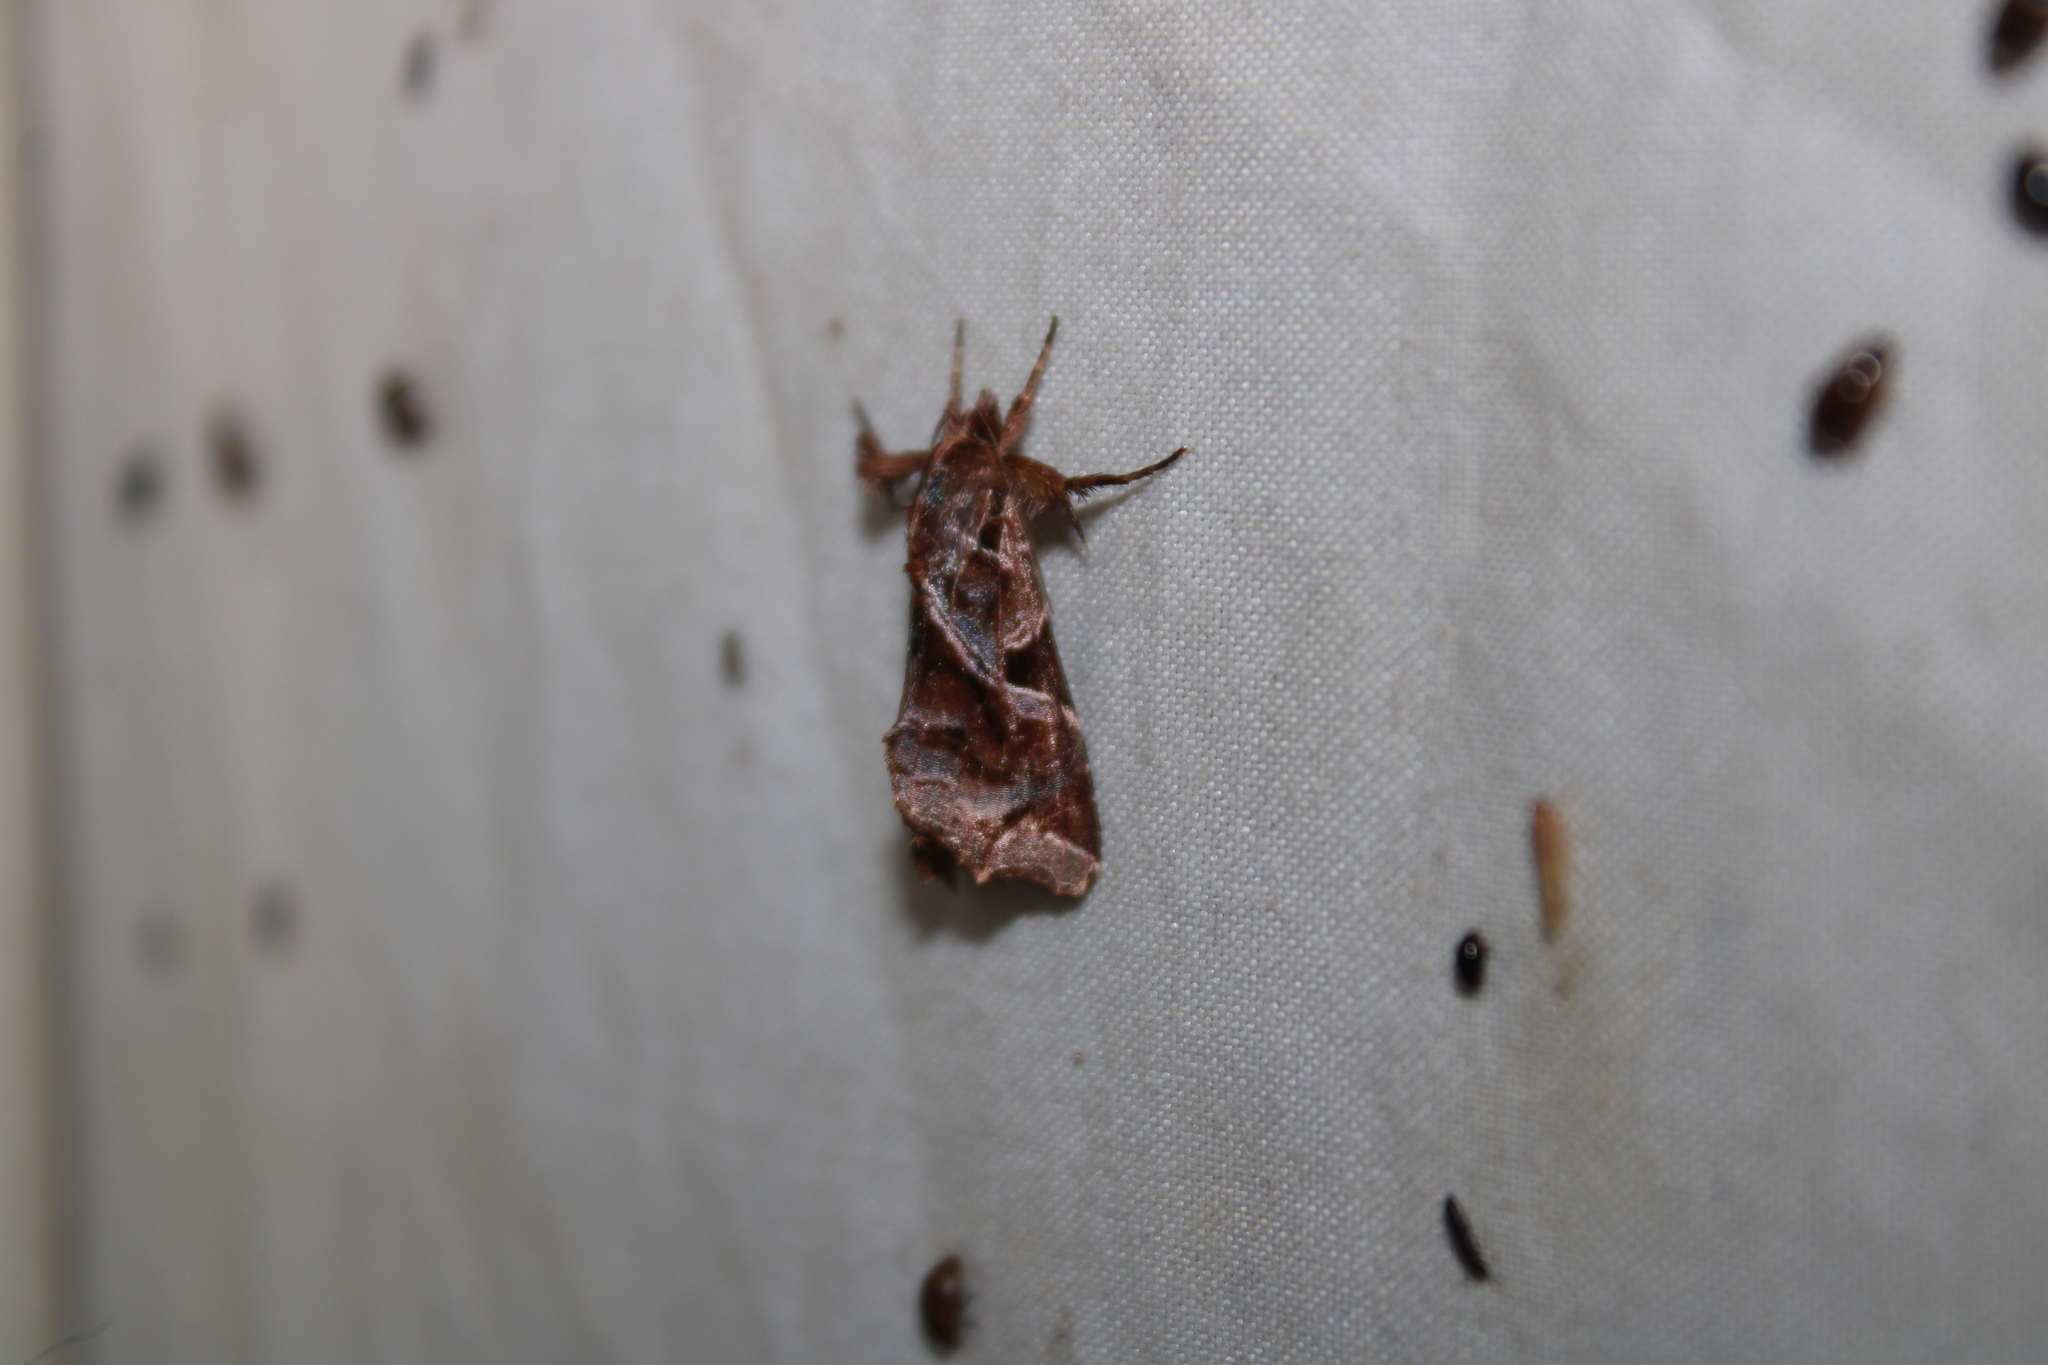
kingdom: Animalia
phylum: Arthropoda
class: Insecta
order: Lepidoptera
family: Noctuidae
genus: Callopistria
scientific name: Callopistria floridensis
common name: Florida fern moth
